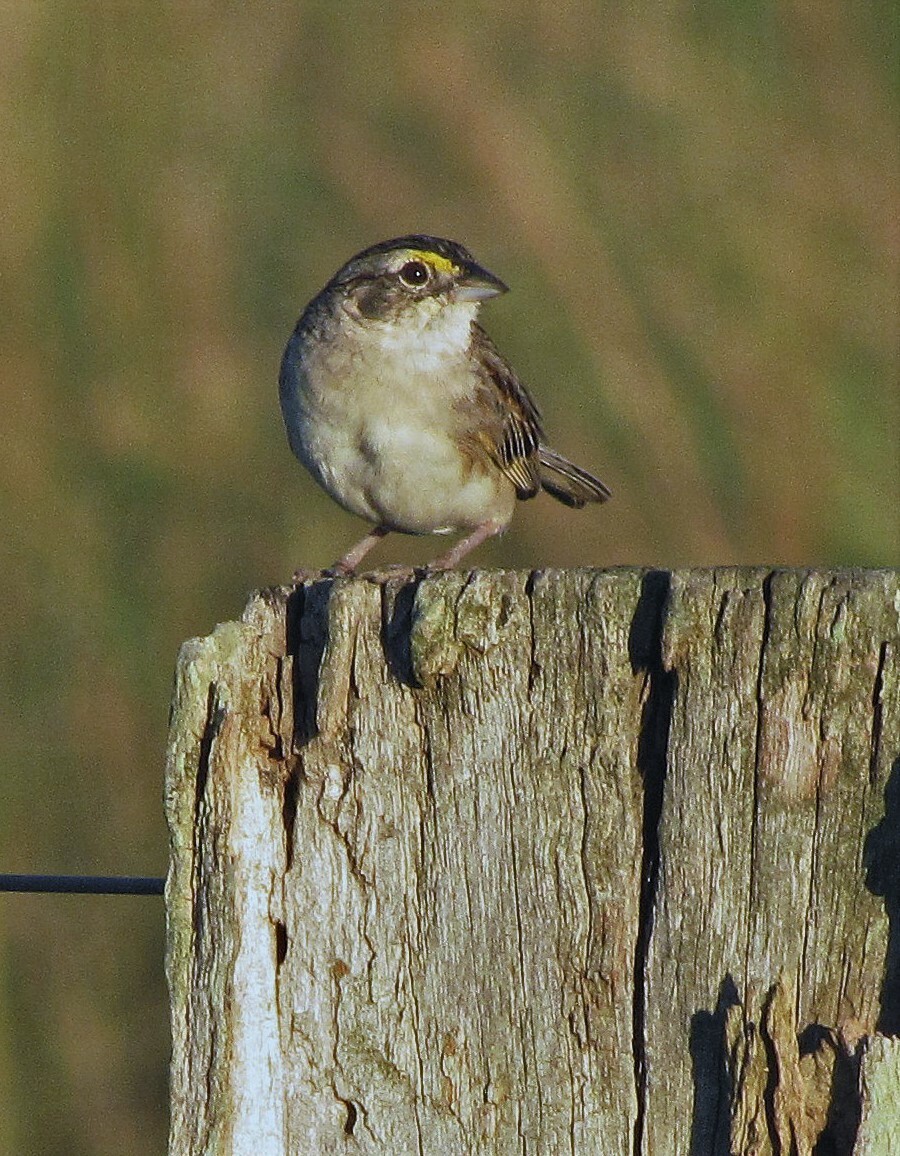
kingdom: Animalia
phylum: Chordata
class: Aves
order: Passeriformes
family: Passerellidae
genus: Ammodramus
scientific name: Ammodramus humeralis
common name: Grassland sparrow
